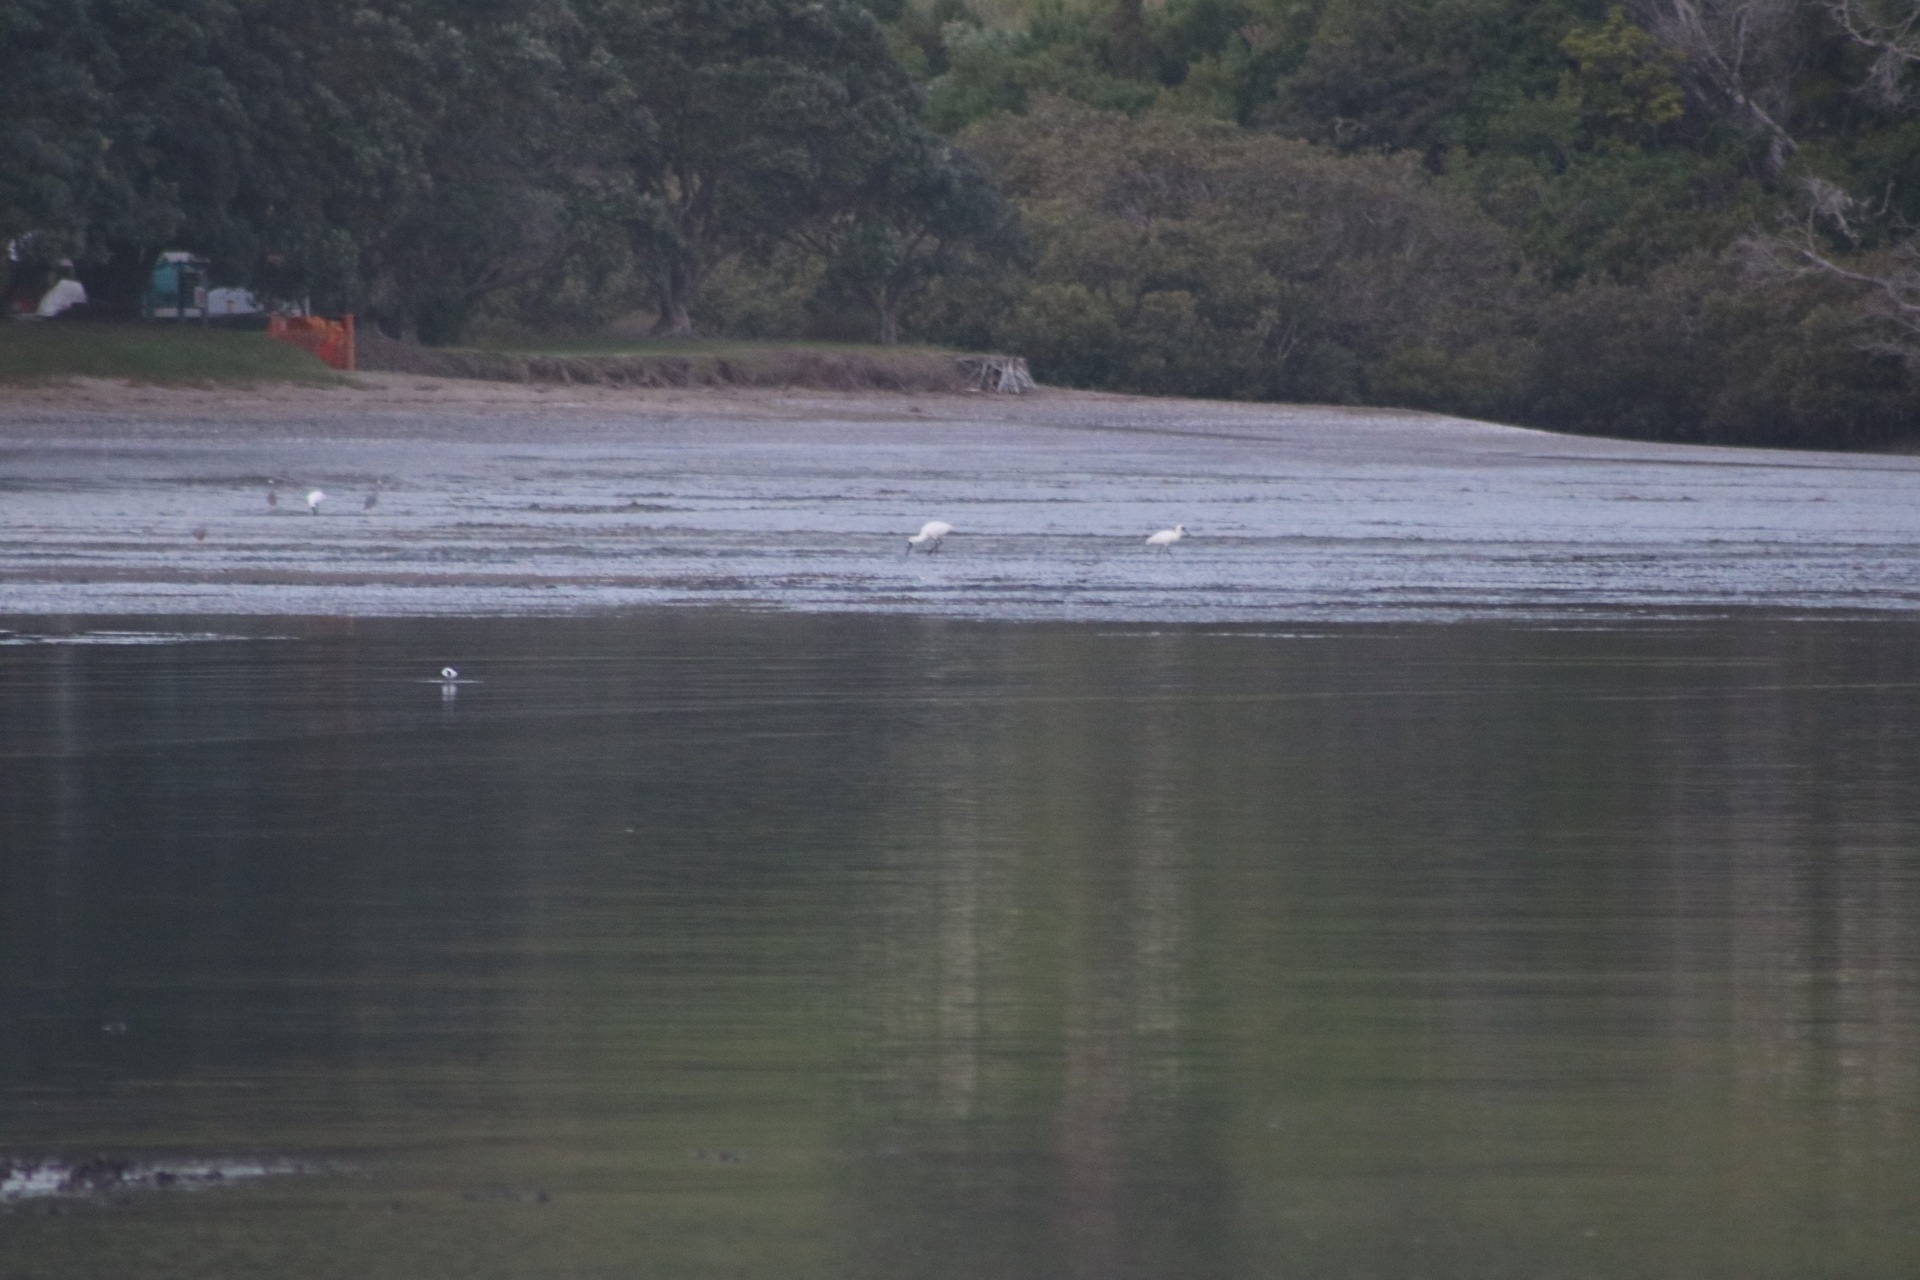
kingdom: Animalia
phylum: Chordata
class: Aves
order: Pelecaniformes
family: Threskiornithidae
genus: Platalea
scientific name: Platalea regia
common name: Royal spoonbill
